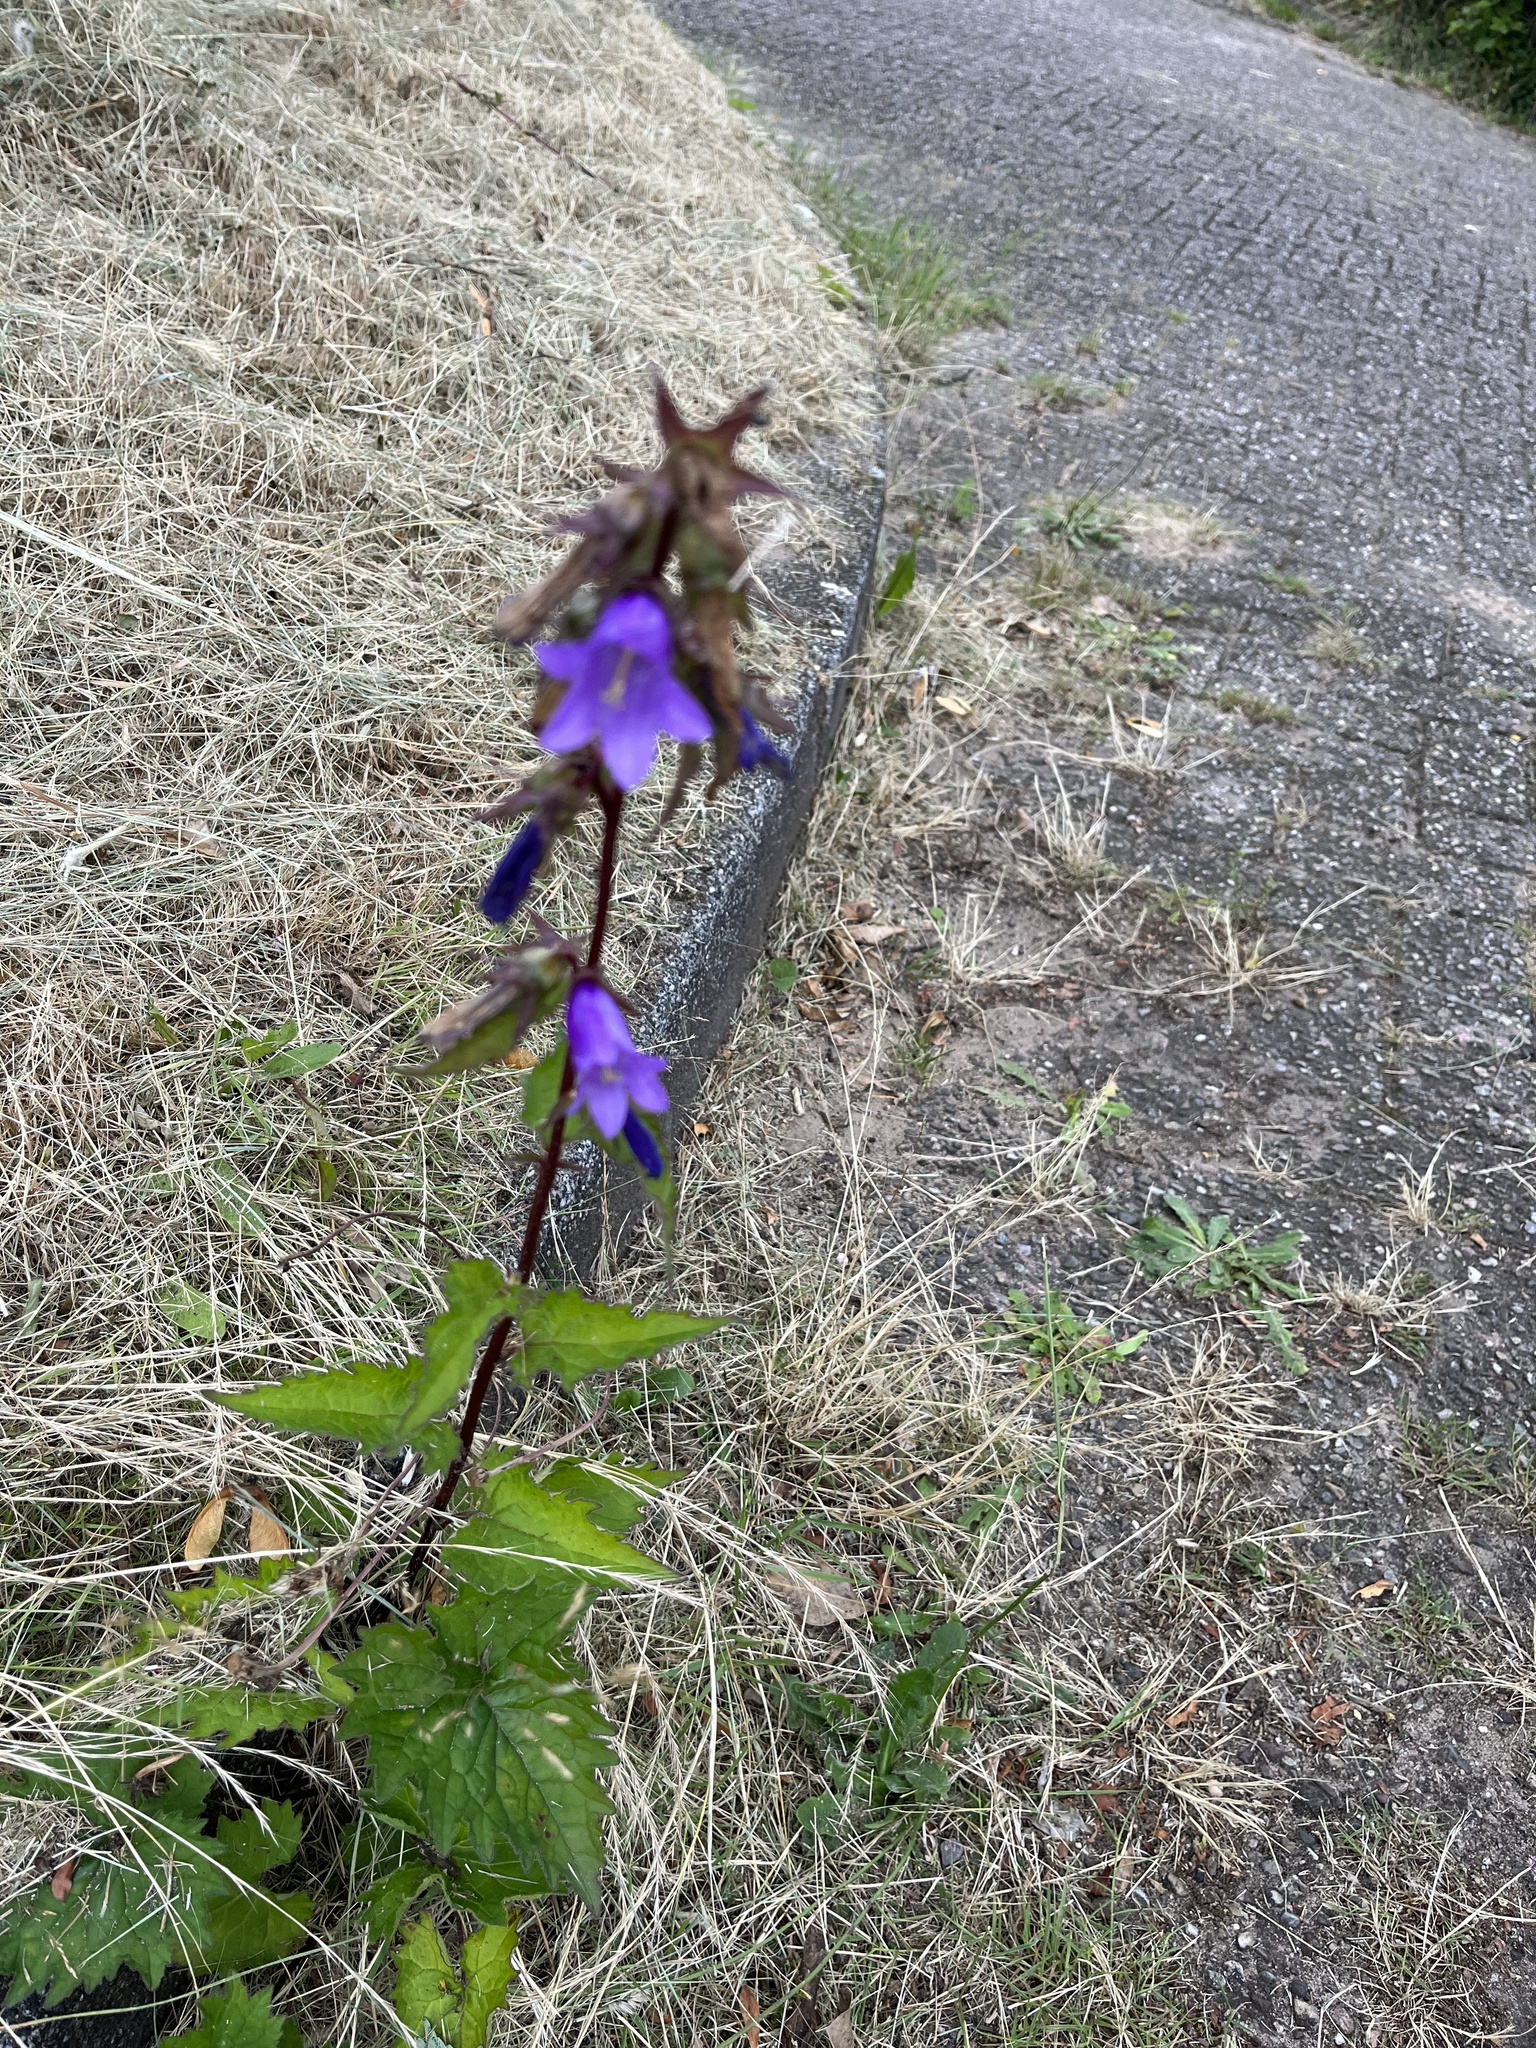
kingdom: Plantae
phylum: Tracheophyta
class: Magnoliopsida
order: Asterales
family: Campanulaceae
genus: Campanula
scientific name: Campanula trachelium
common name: Nettle-leaved bellflower
